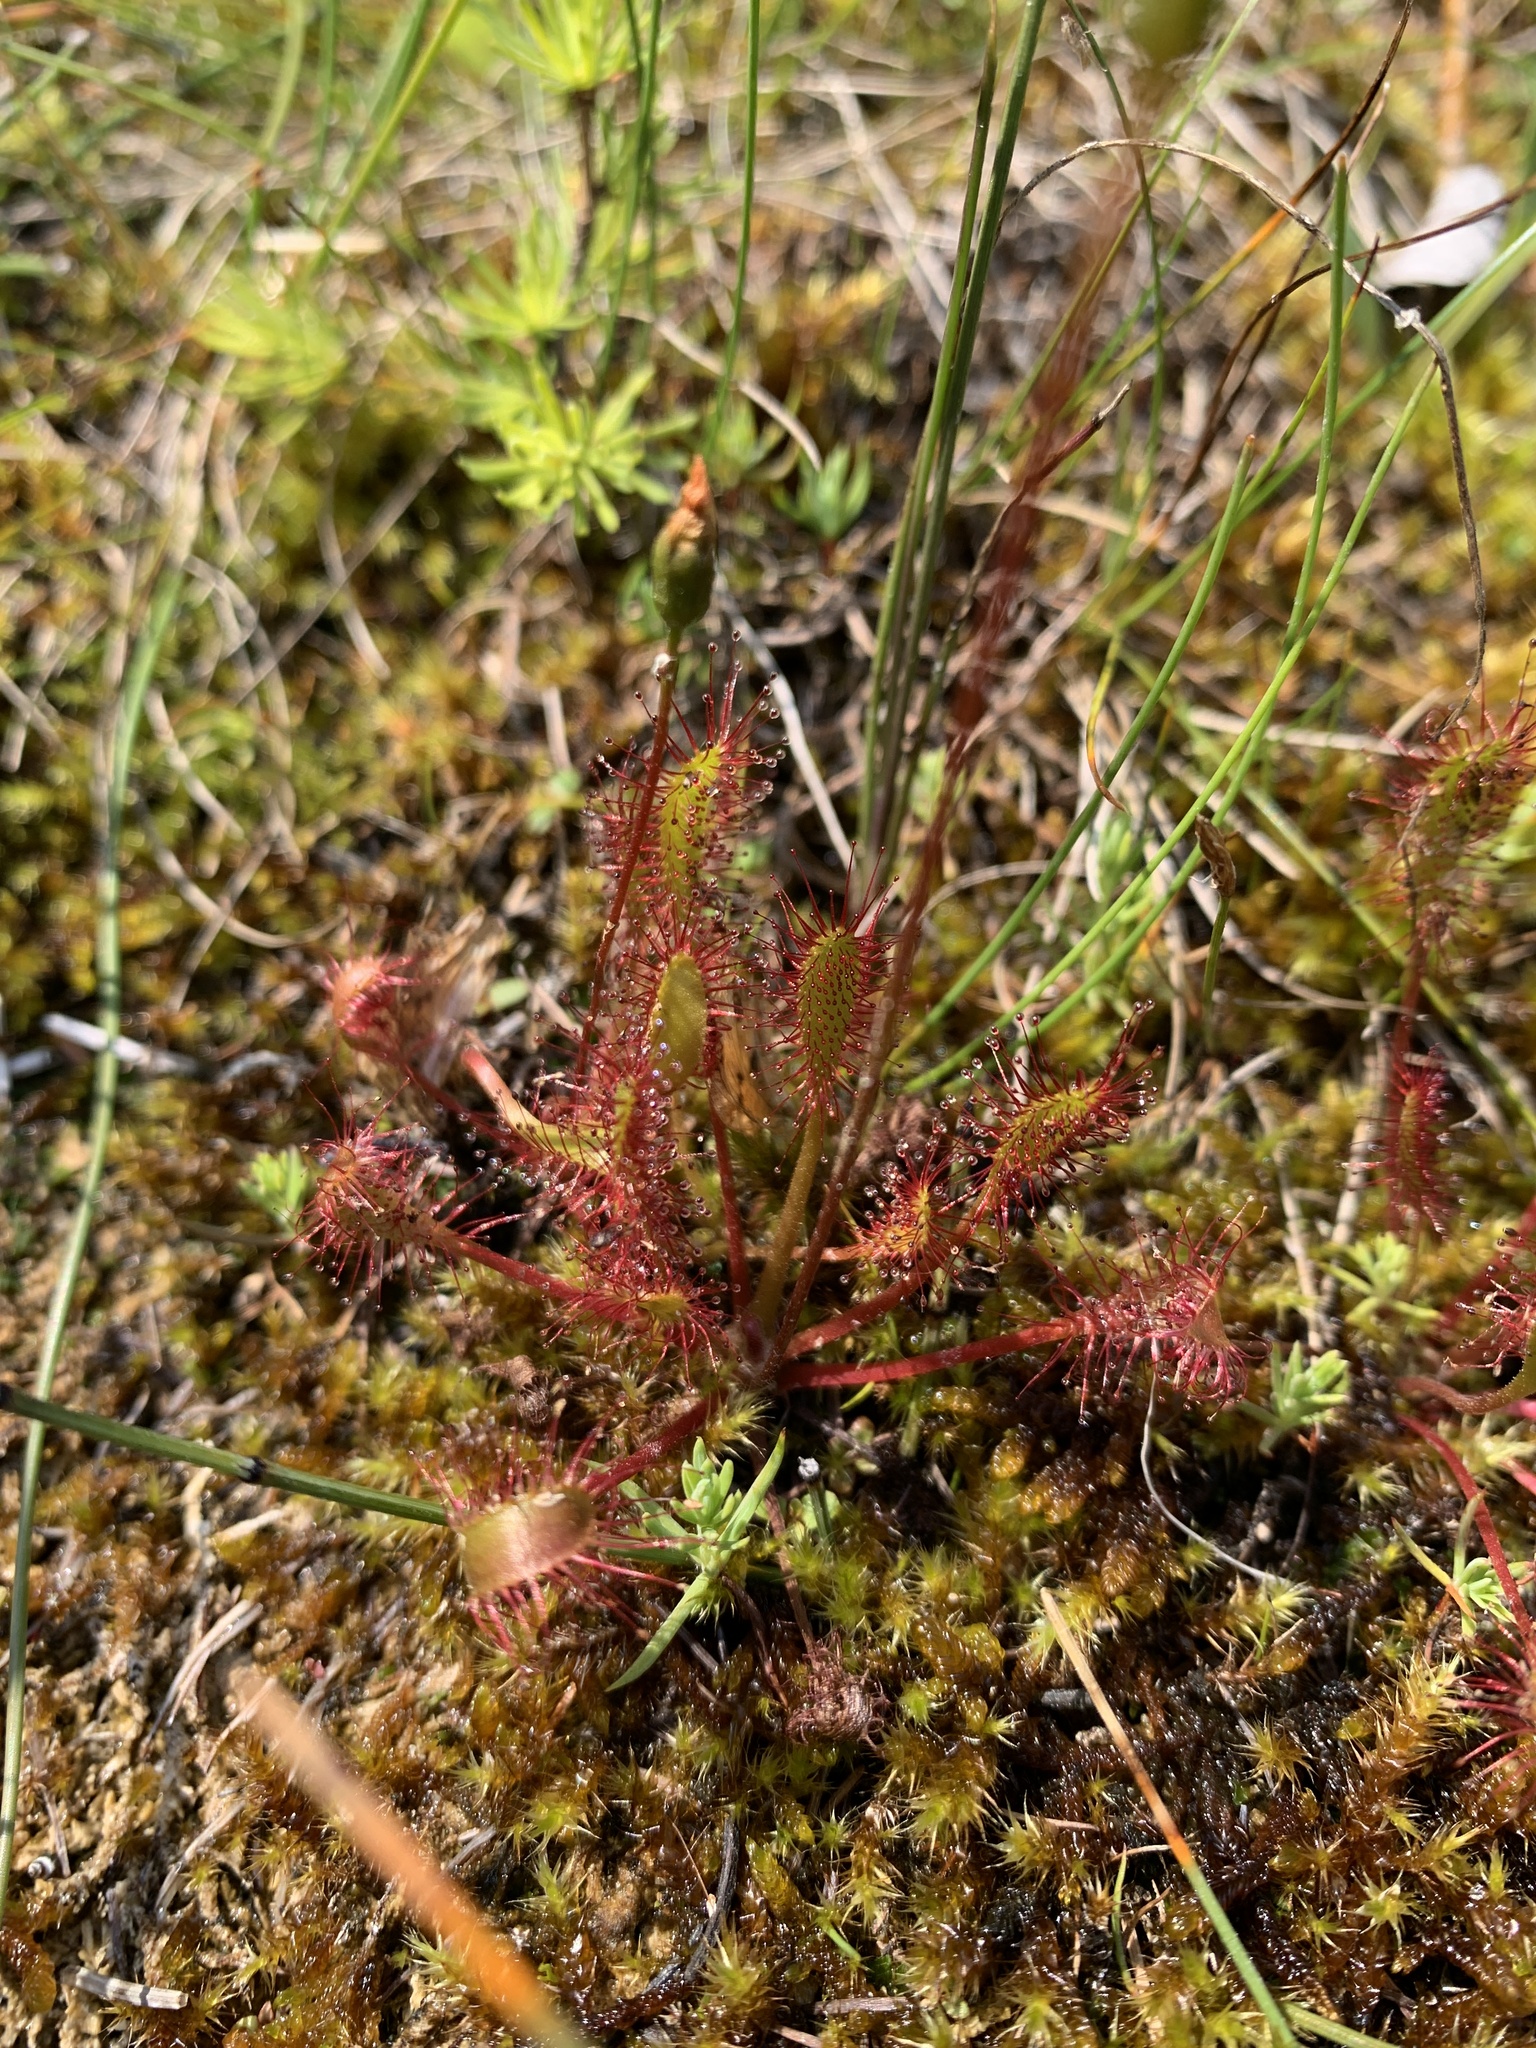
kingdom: Plantae
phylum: Tracheophyta
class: Magnoliopsida
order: Caryophyllales
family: Droseraceae
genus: Drosera
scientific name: Drosera anglica
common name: Great sundew
